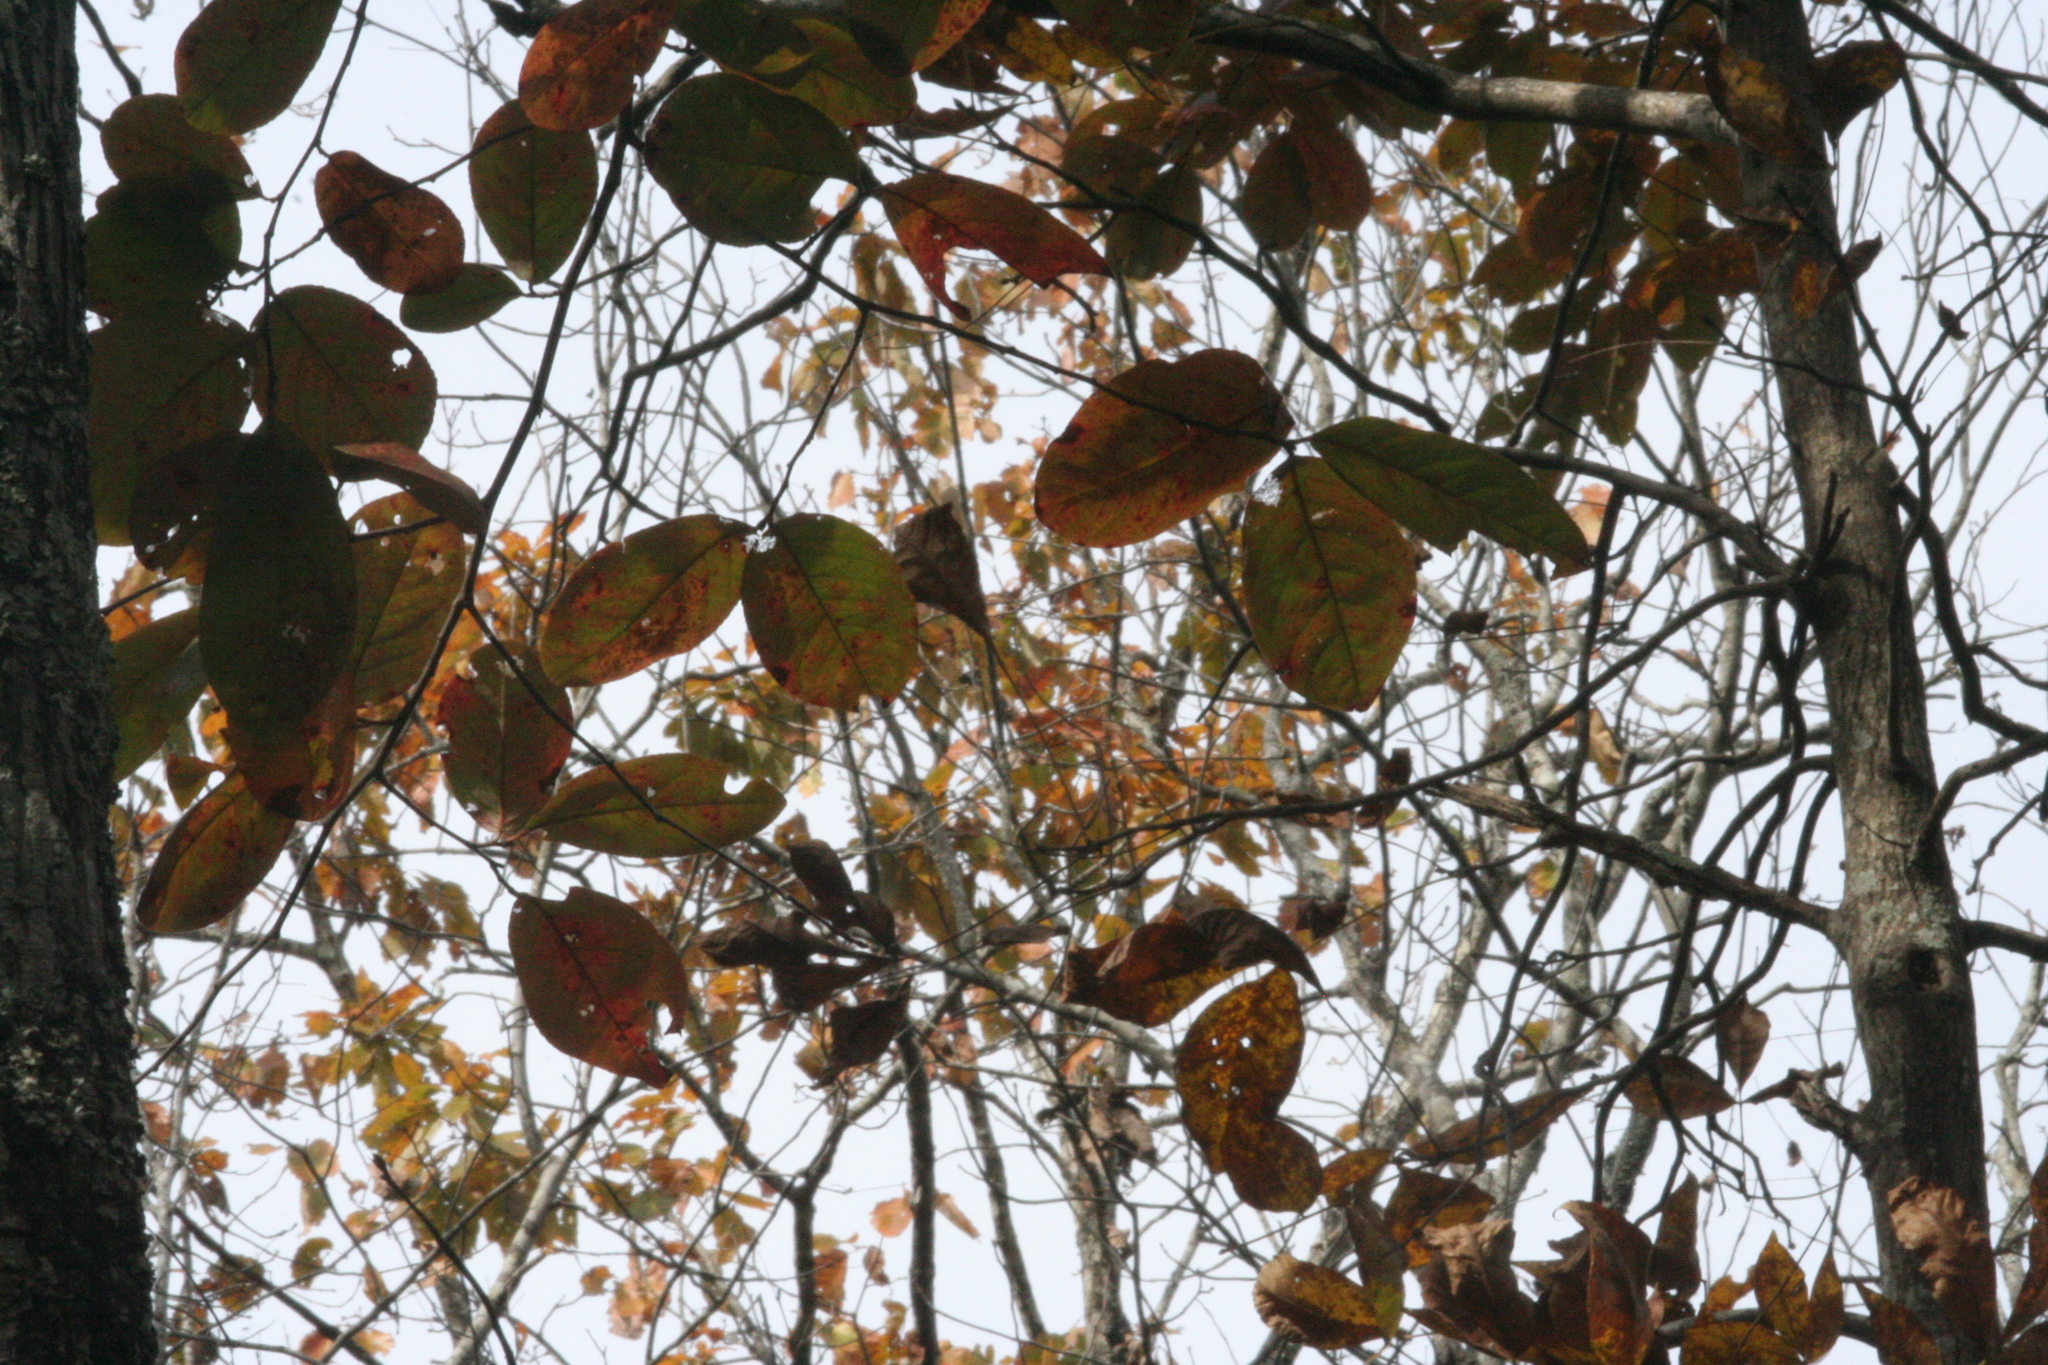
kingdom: Plantae
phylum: Tracheophyta
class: Magnoliopsida
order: Rosales
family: Rosaceae
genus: Prunus
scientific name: Prunus alabamensis
